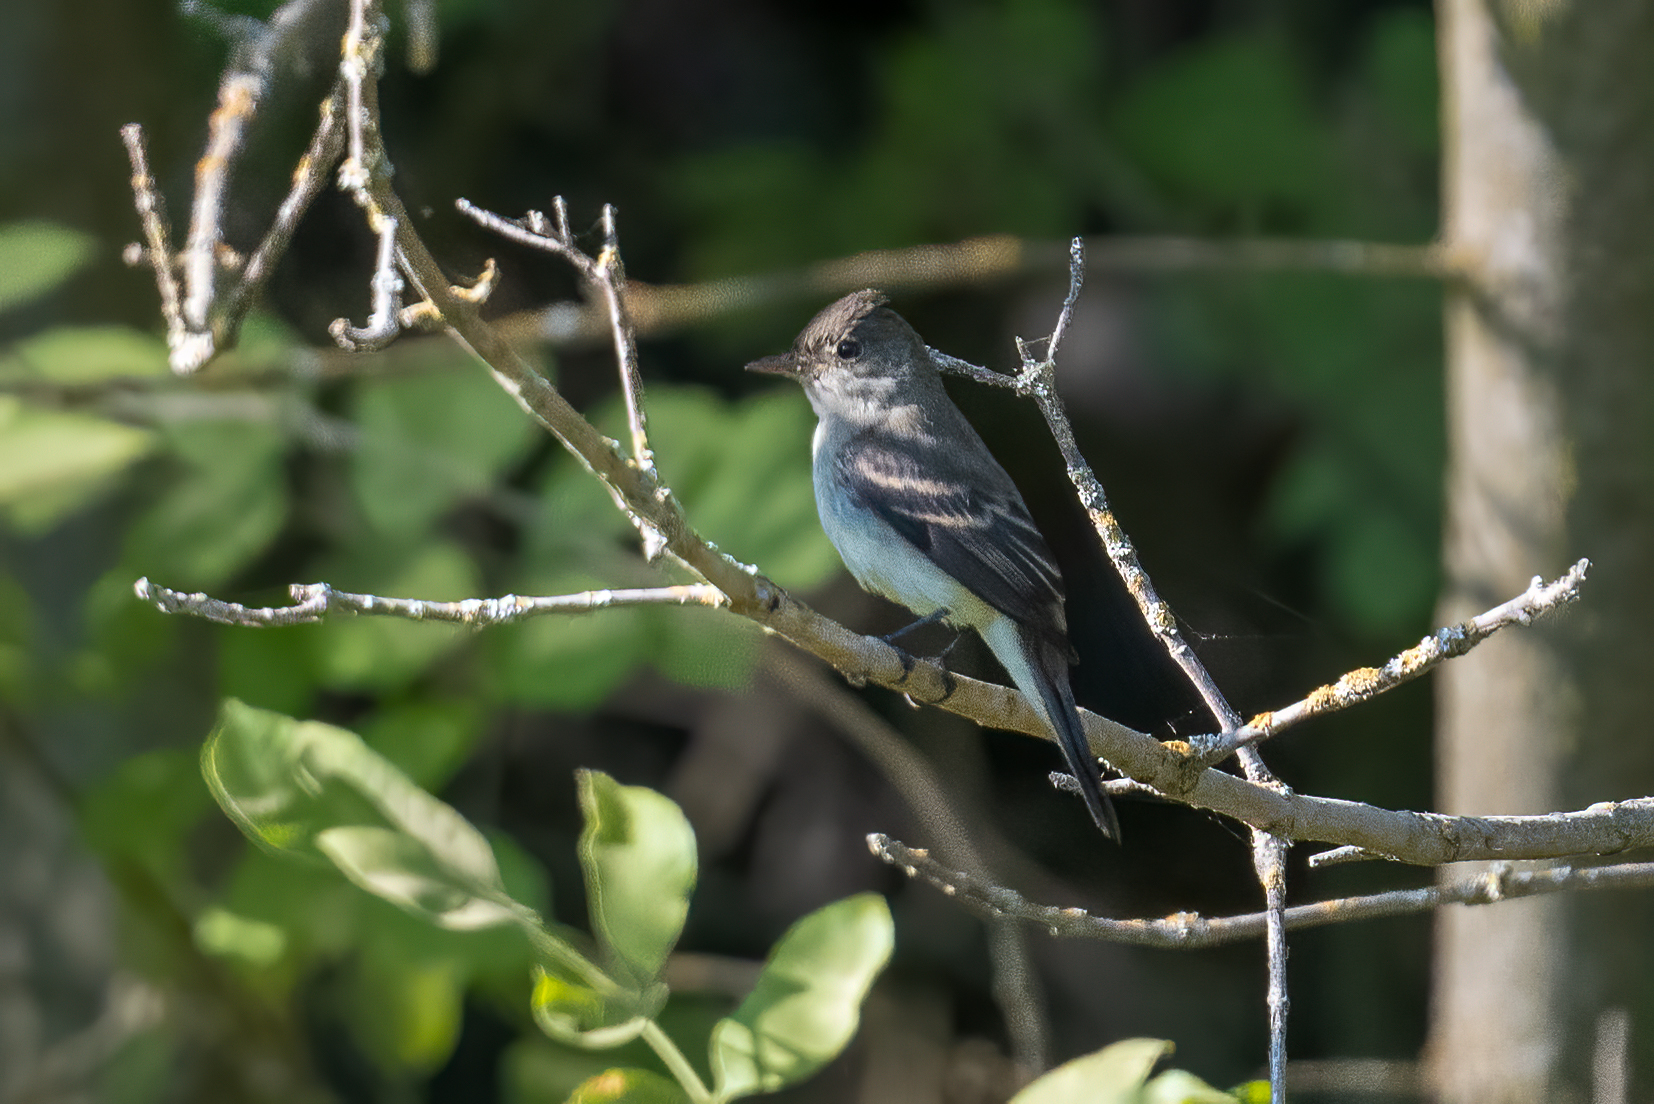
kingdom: Animalia
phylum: Chordata
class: Aves
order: Passeriformes
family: Tyrannidae
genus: Empidonax
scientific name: Empidonax traillii
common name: Willow flycatcher
